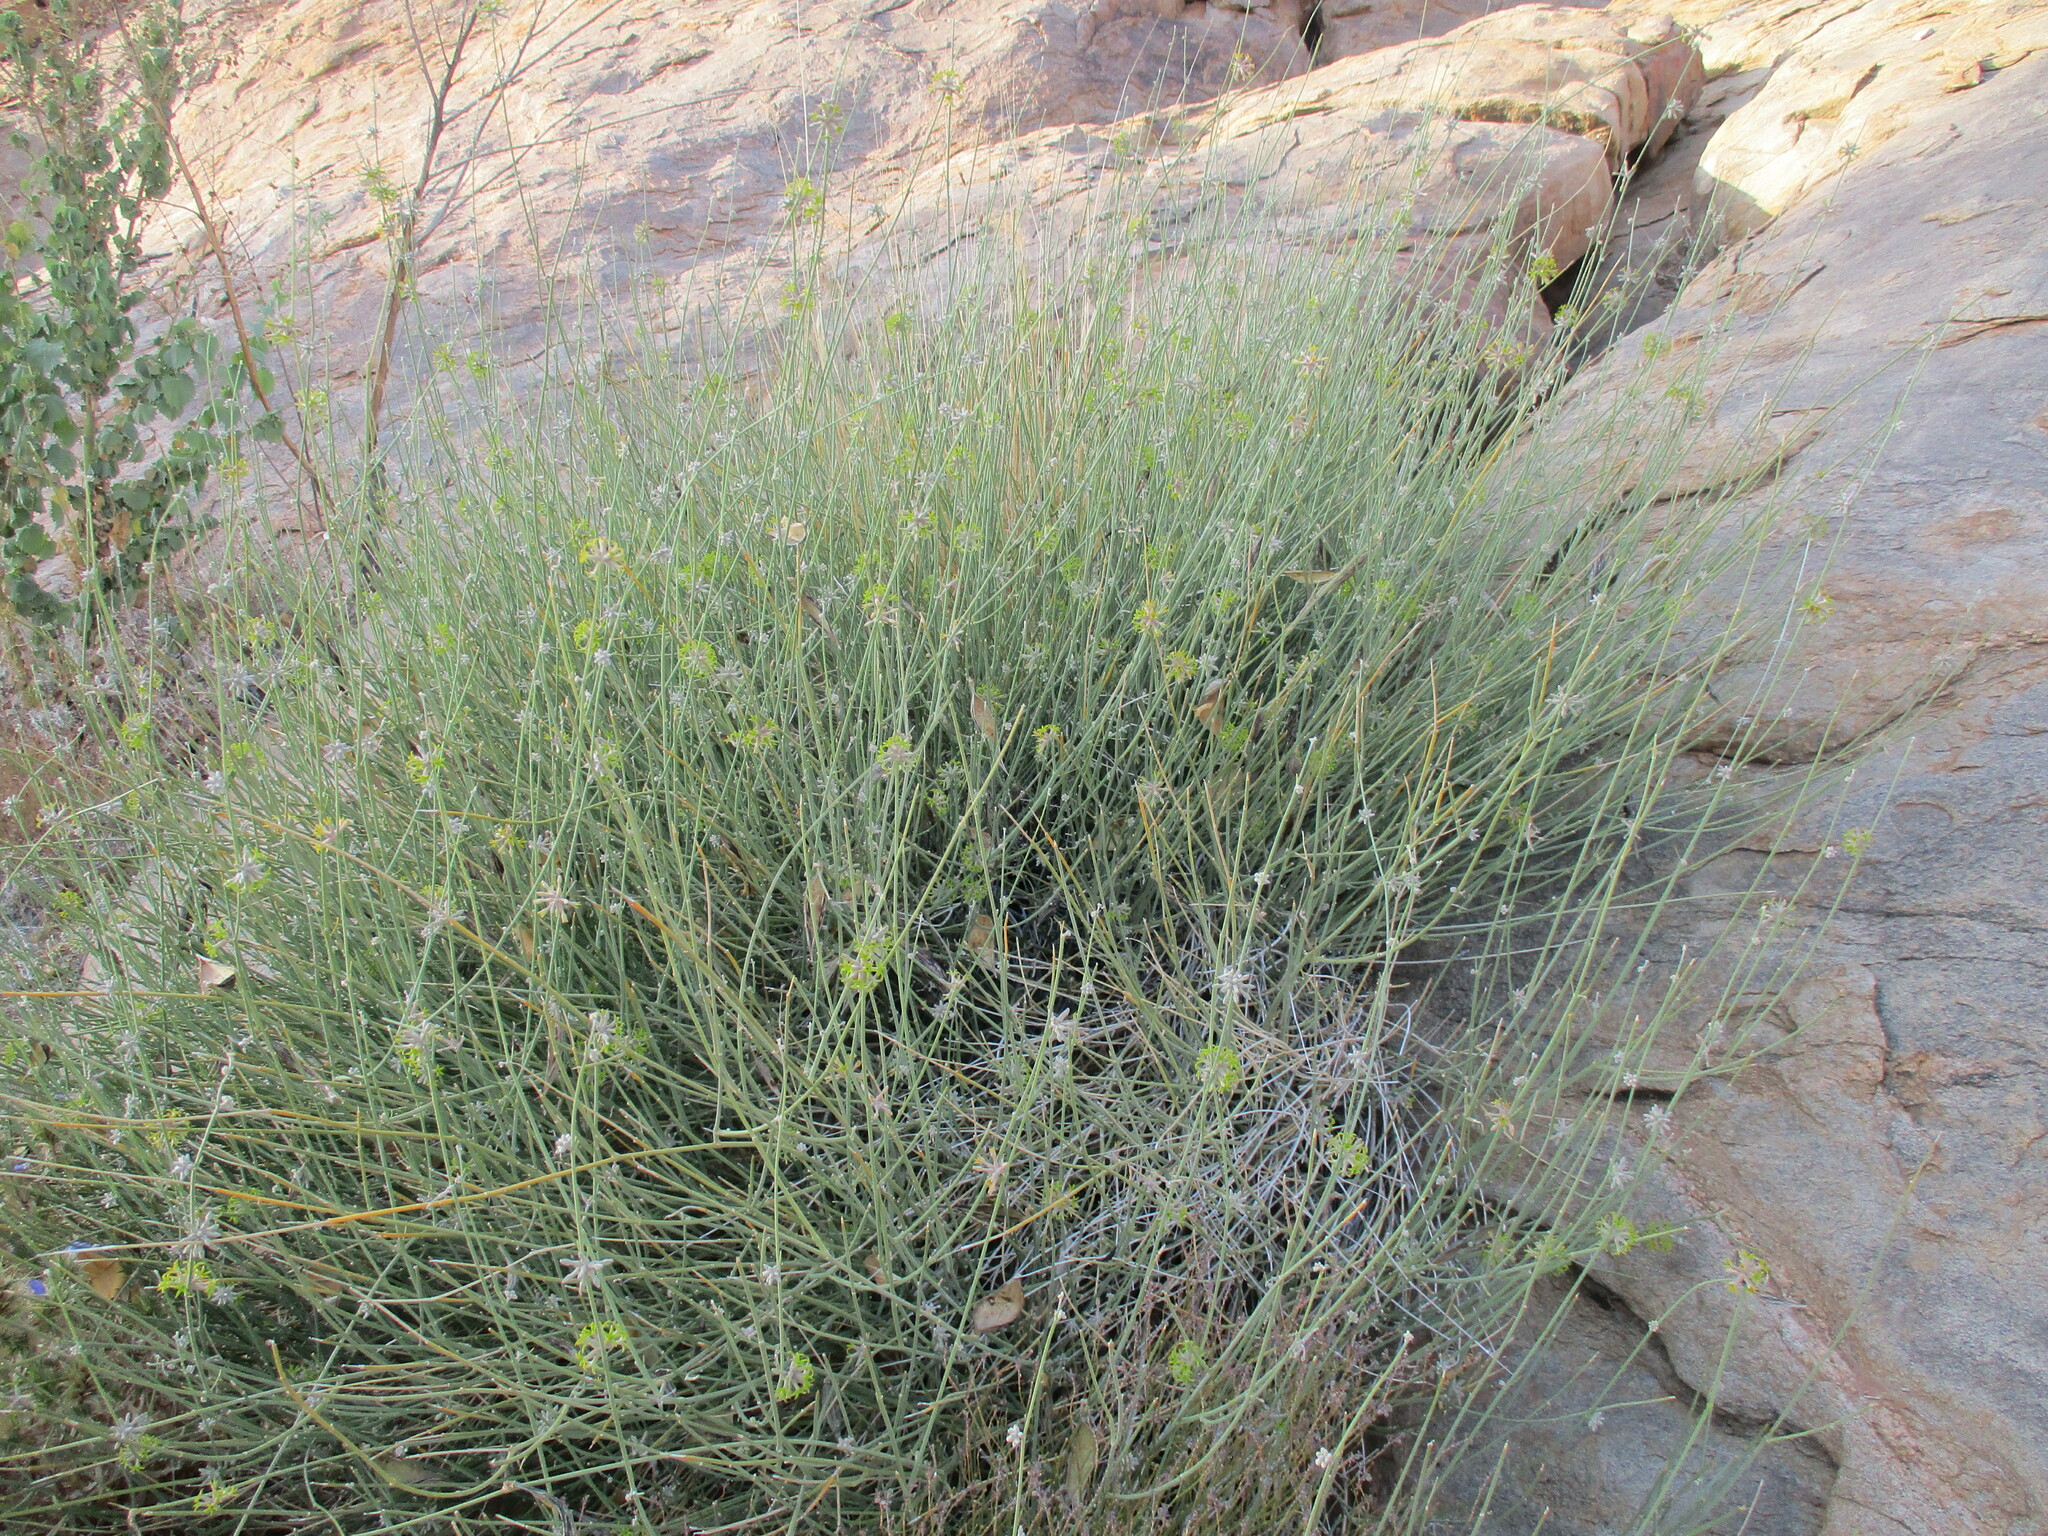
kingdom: Plantae
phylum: Tracheophyta
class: Magnoliopsida
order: Gentianales
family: Apocynaceae
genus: Orthanthera
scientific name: Orthanthera albida
